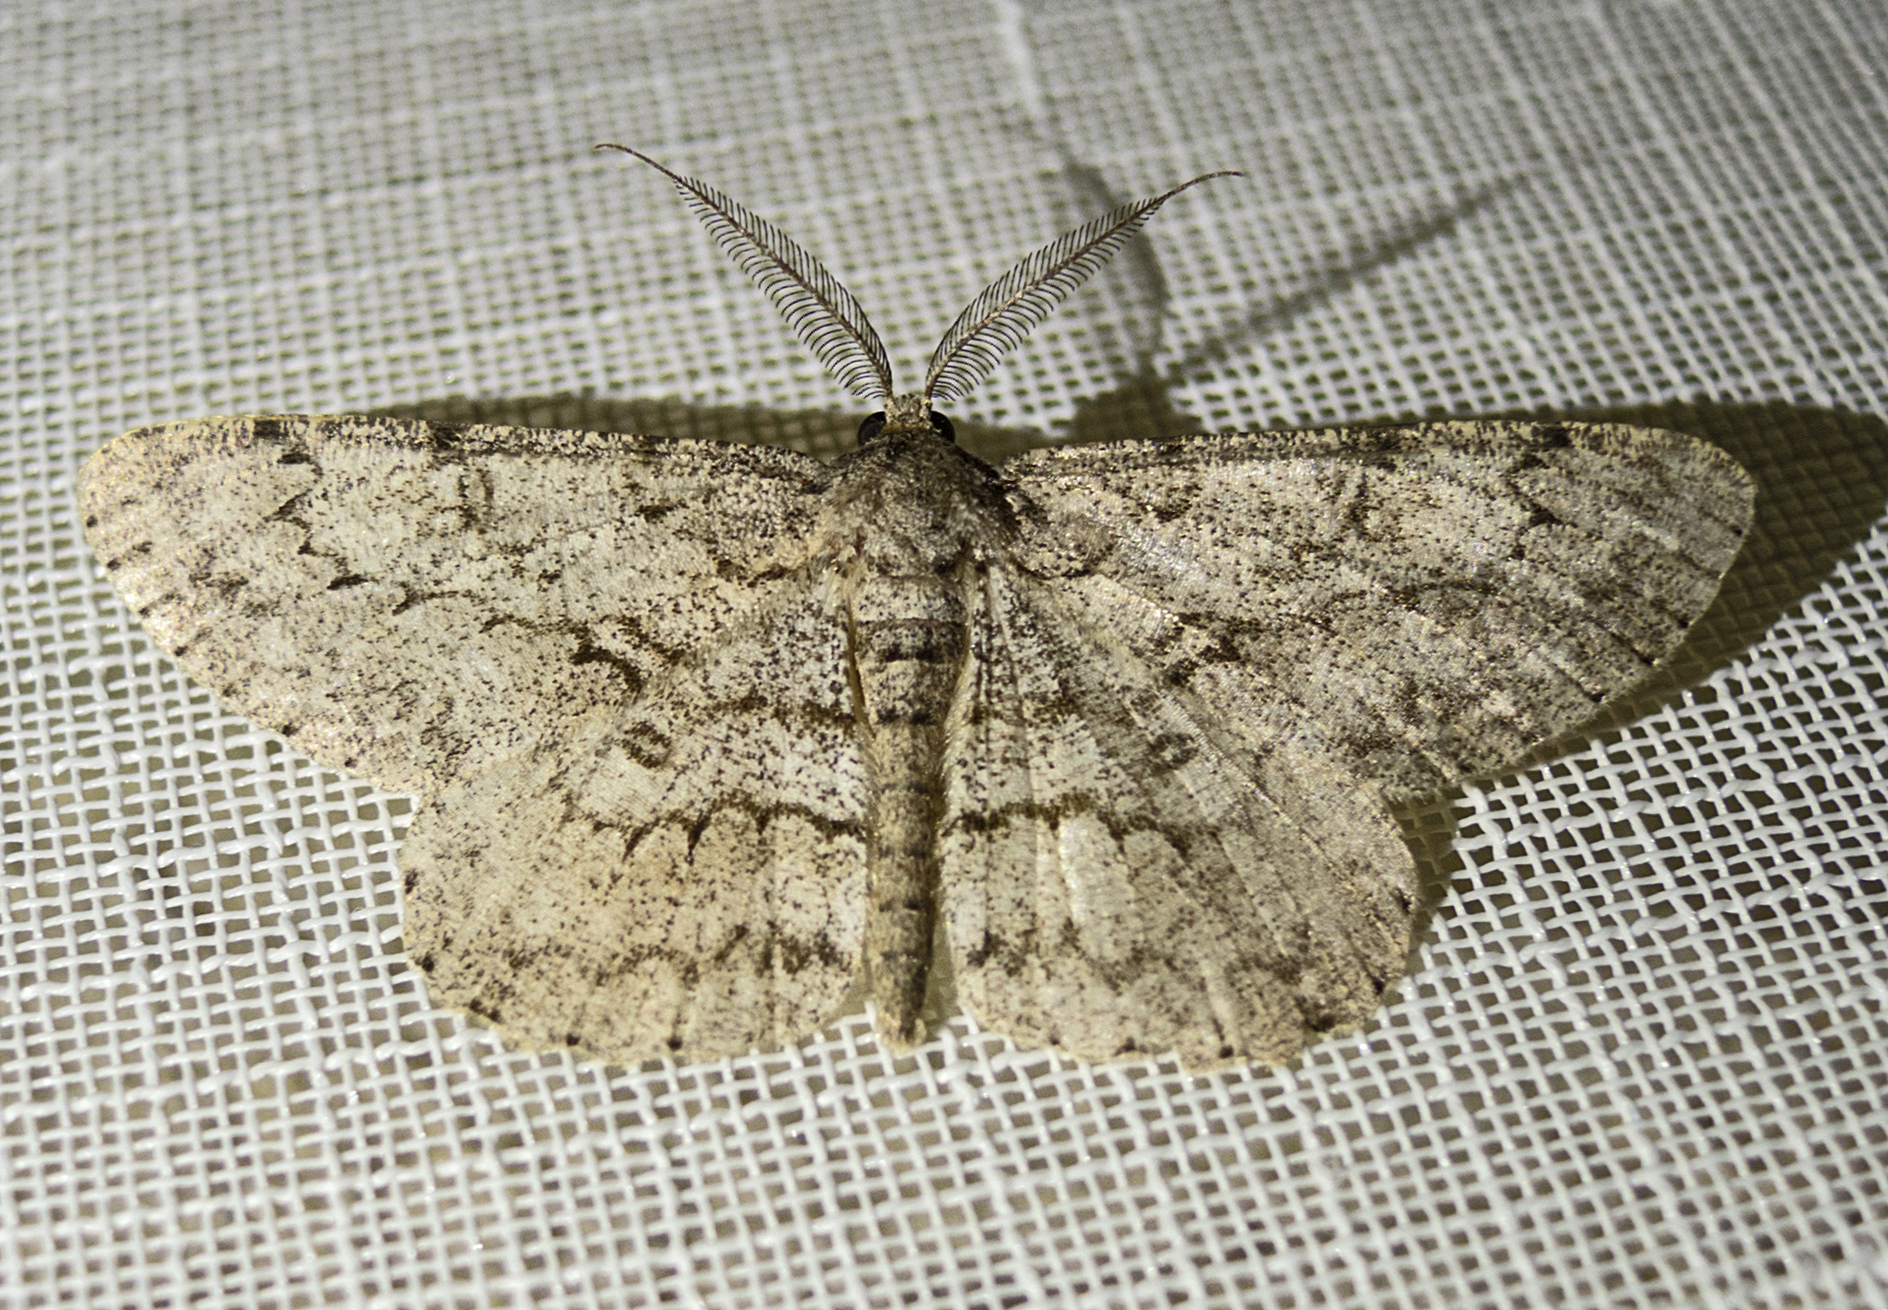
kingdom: Animalia
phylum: Arthropoda
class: Insecta
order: Lepidoptera
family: Geometridae
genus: Hypomecis
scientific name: Hypomecis punctinalis
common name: Pale oak beauty
